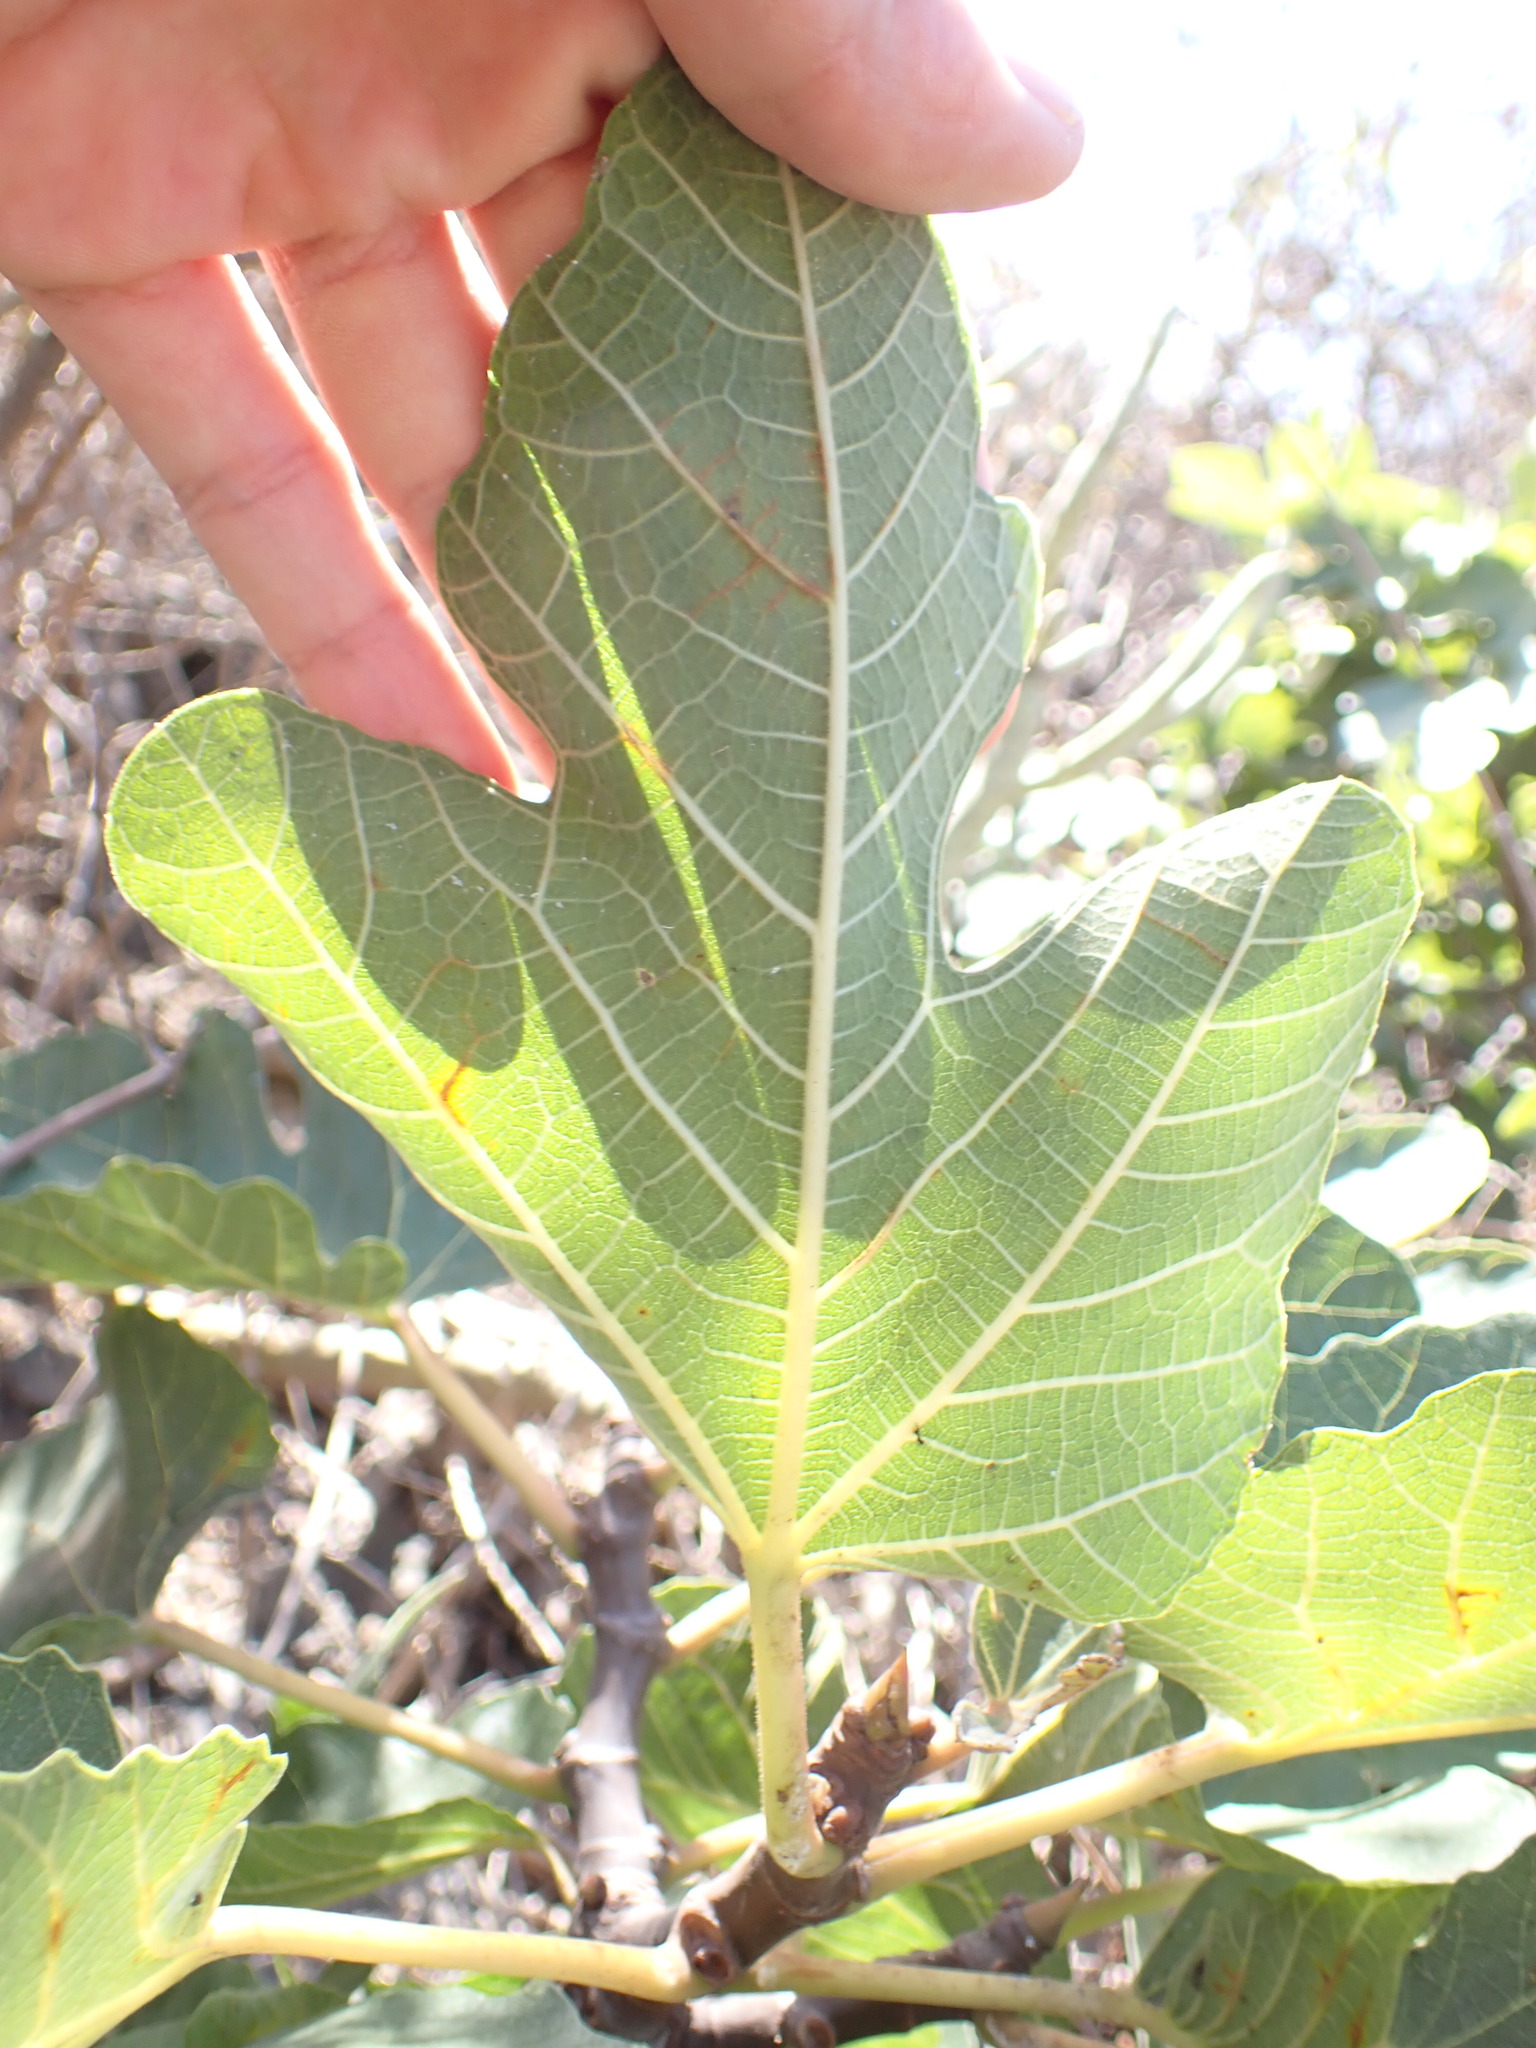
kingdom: Plantae
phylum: Tracheophyta
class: Magnoliopsida
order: Rosales
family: Moraceae
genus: Ficus
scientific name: Ficus carica
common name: Fig
